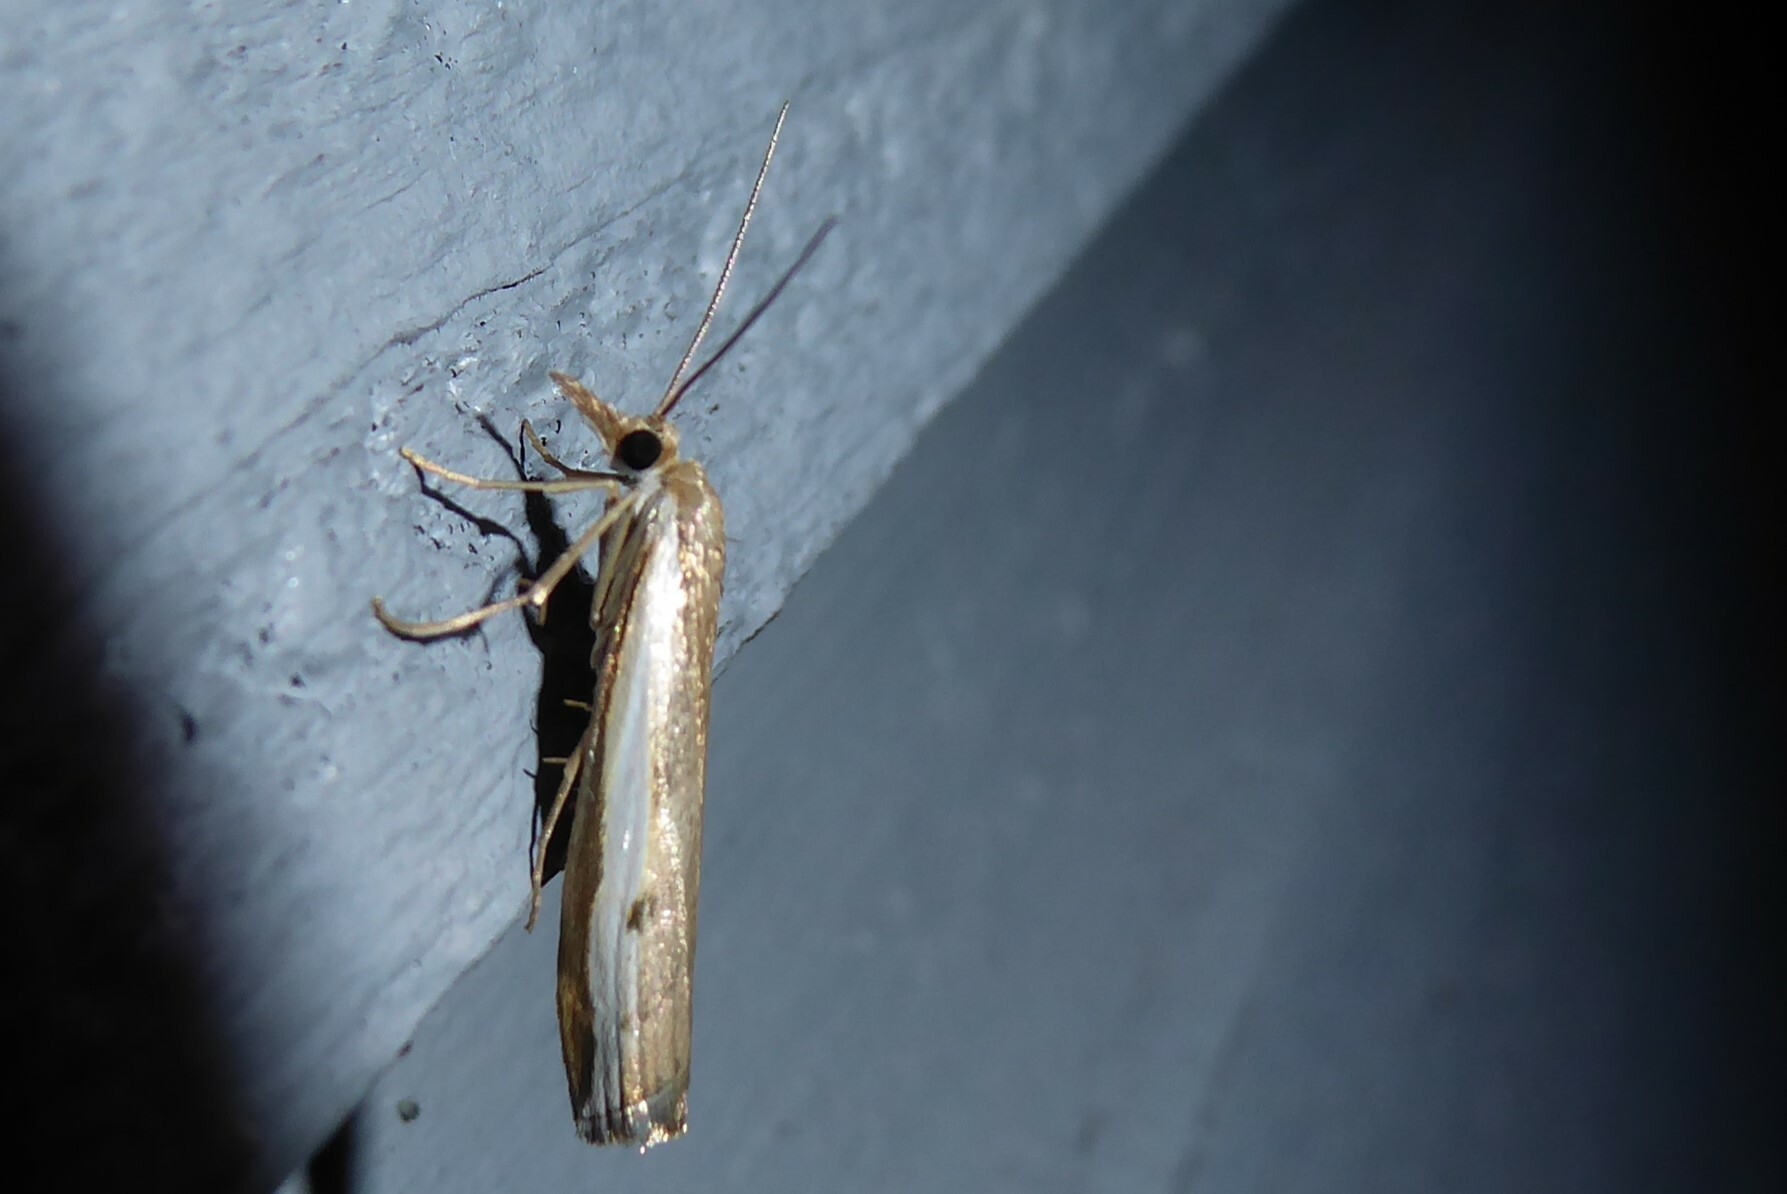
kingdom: Animalia
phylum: Arthropoda
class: Insecta
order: Lepidoptera
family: Crambidae
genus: Orocrambus
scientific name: Orocrambus flexuosellus
